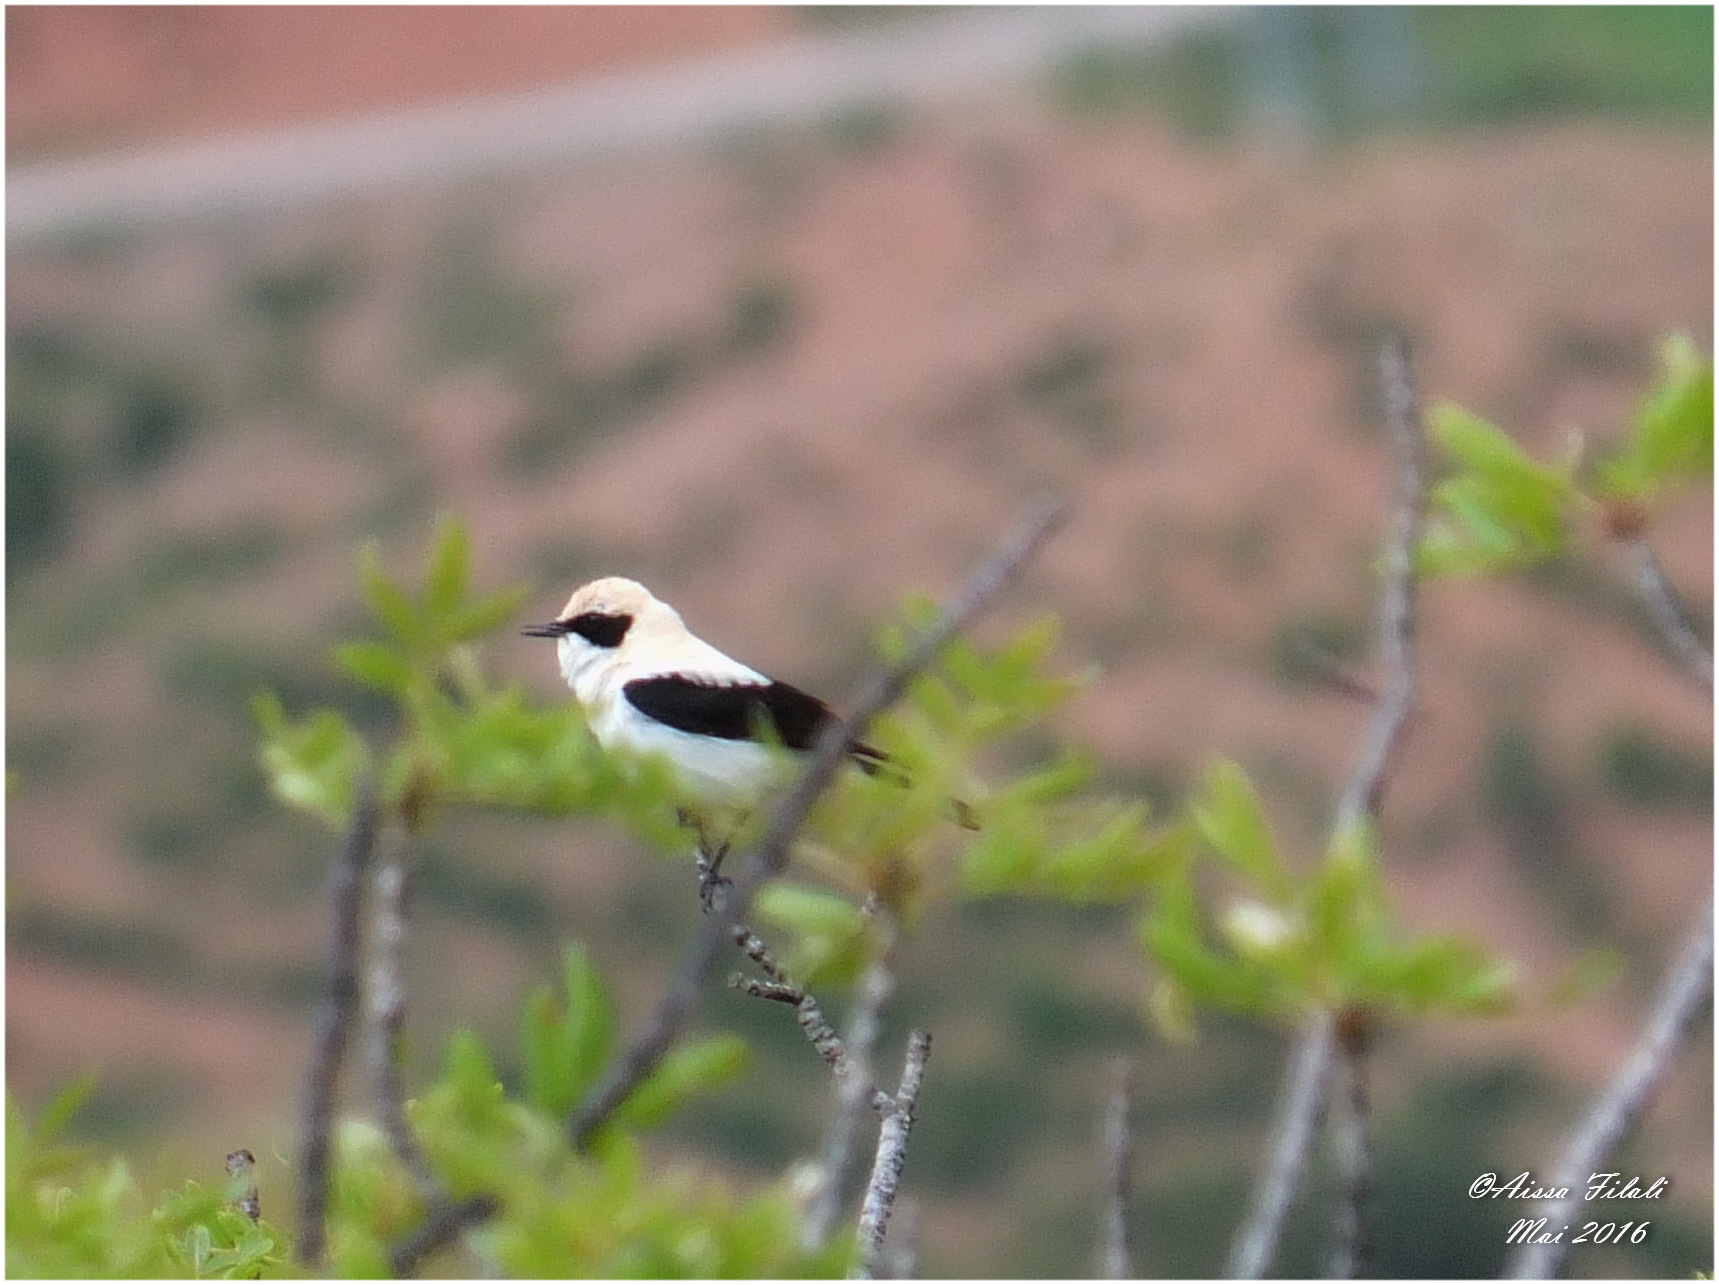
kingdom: Animalia
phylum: Chordata
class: Aves
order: Passeriformes
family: Muscicapidae
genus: Oenanthe
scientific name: Oenanthe hispanica
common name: Black-eared wheatear
